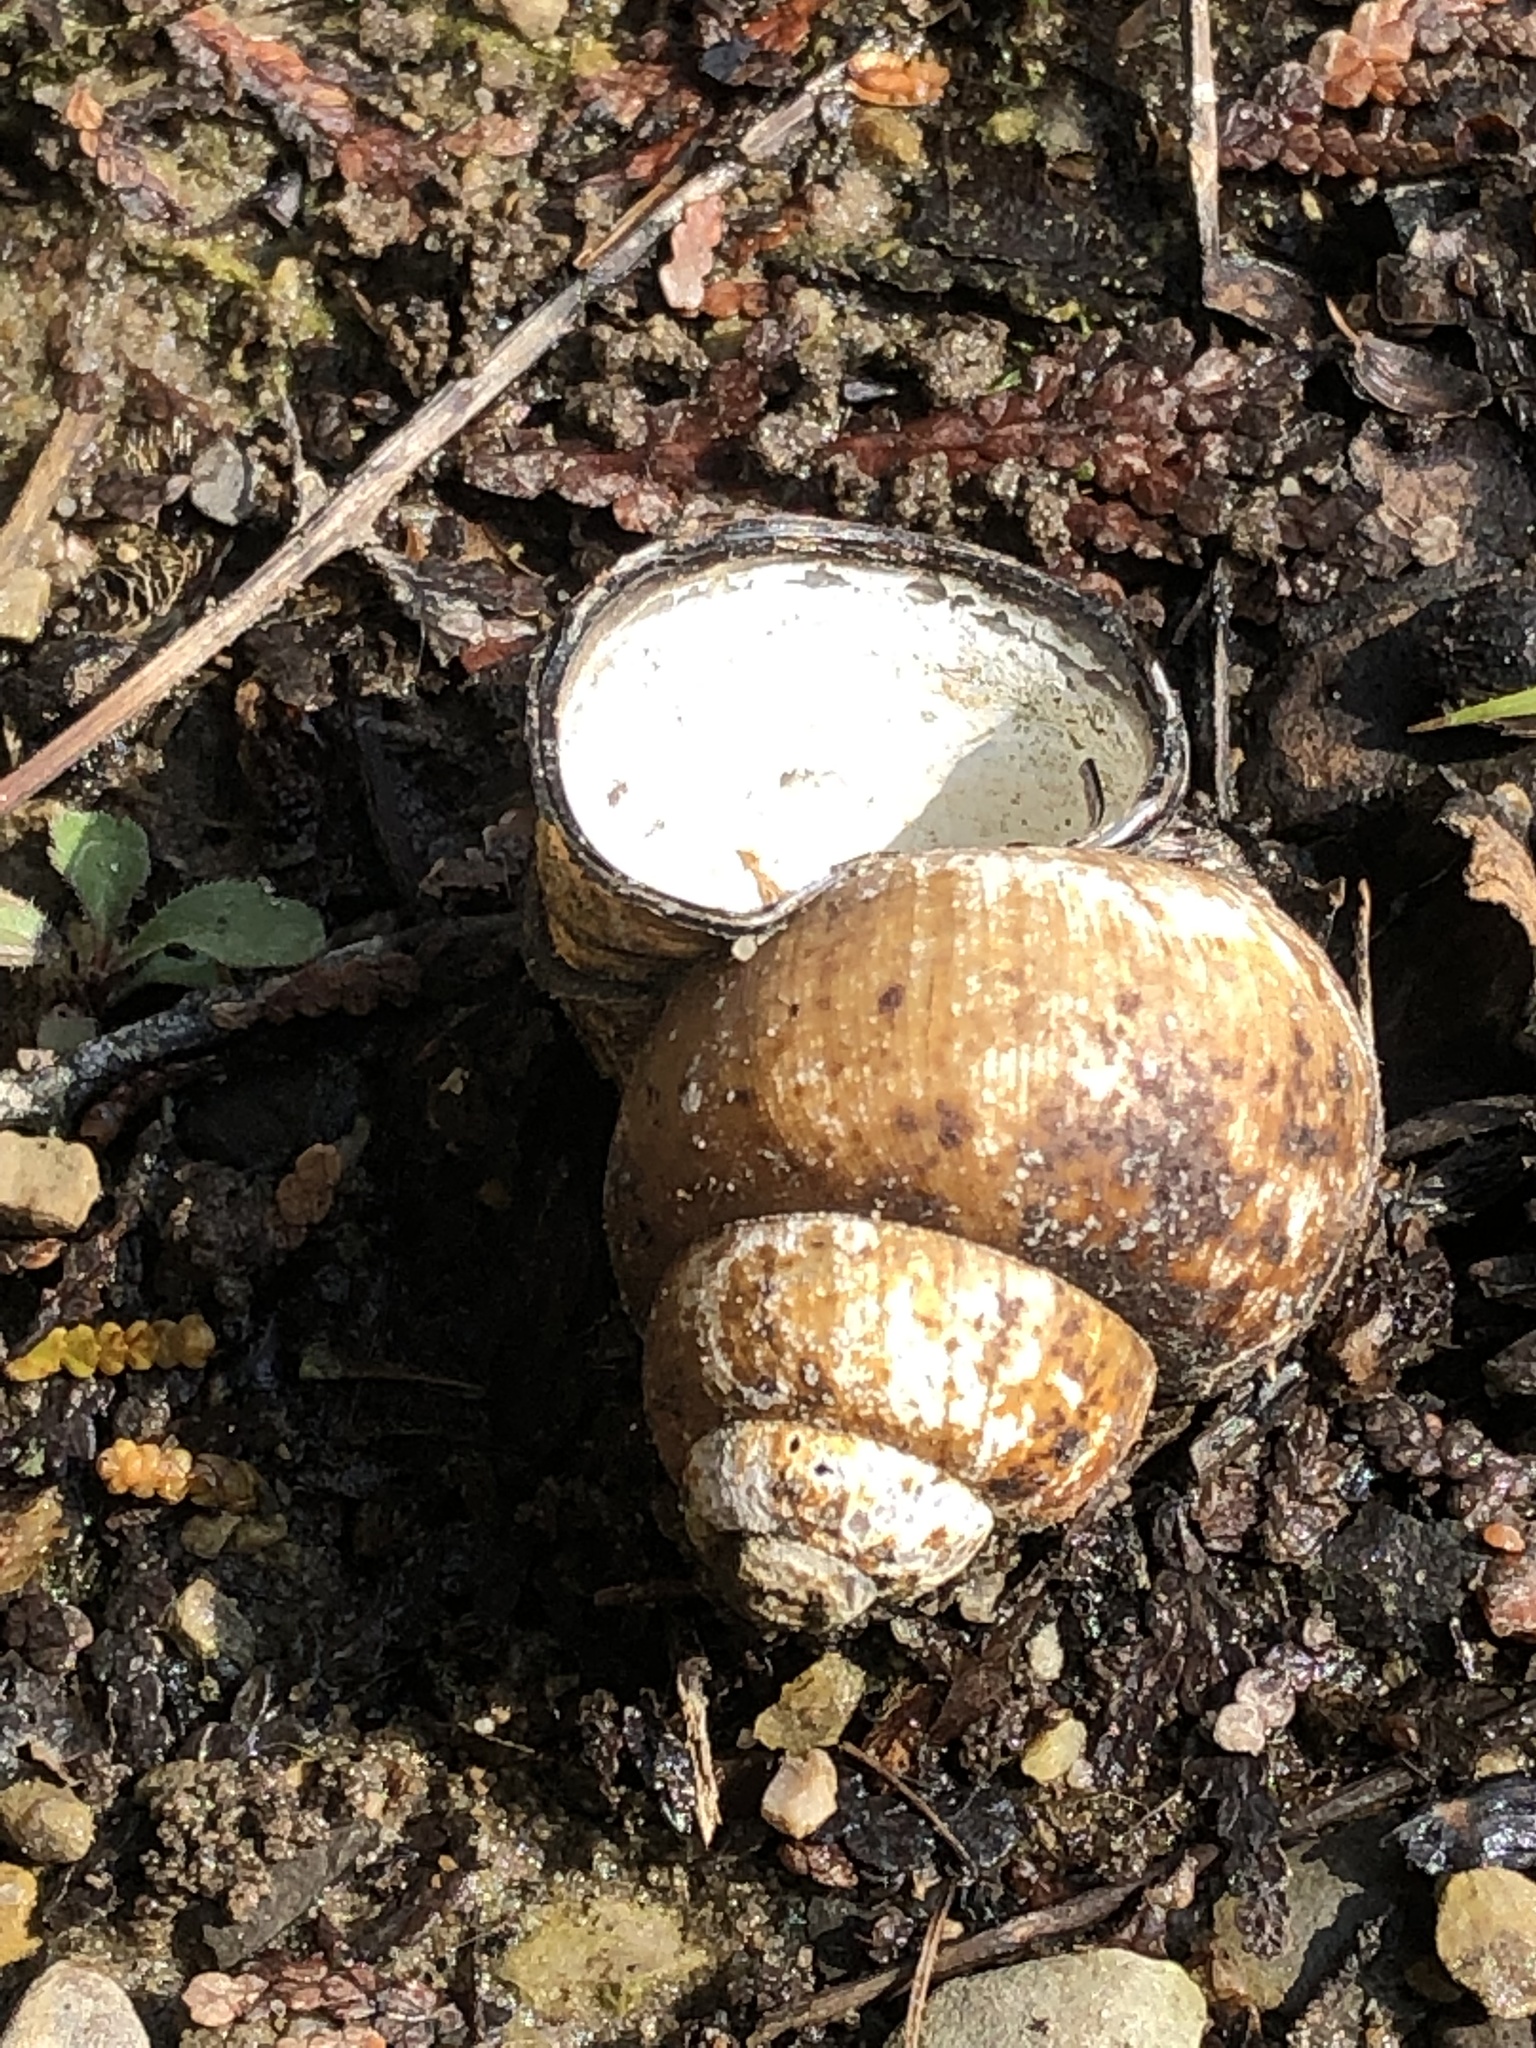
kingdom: Animalia
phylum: Mollusca
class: Gastropoda
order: Architaenioglossa
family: Viviparidae
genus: Cipangopaludina
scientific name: Cipangopaludina chinensis
